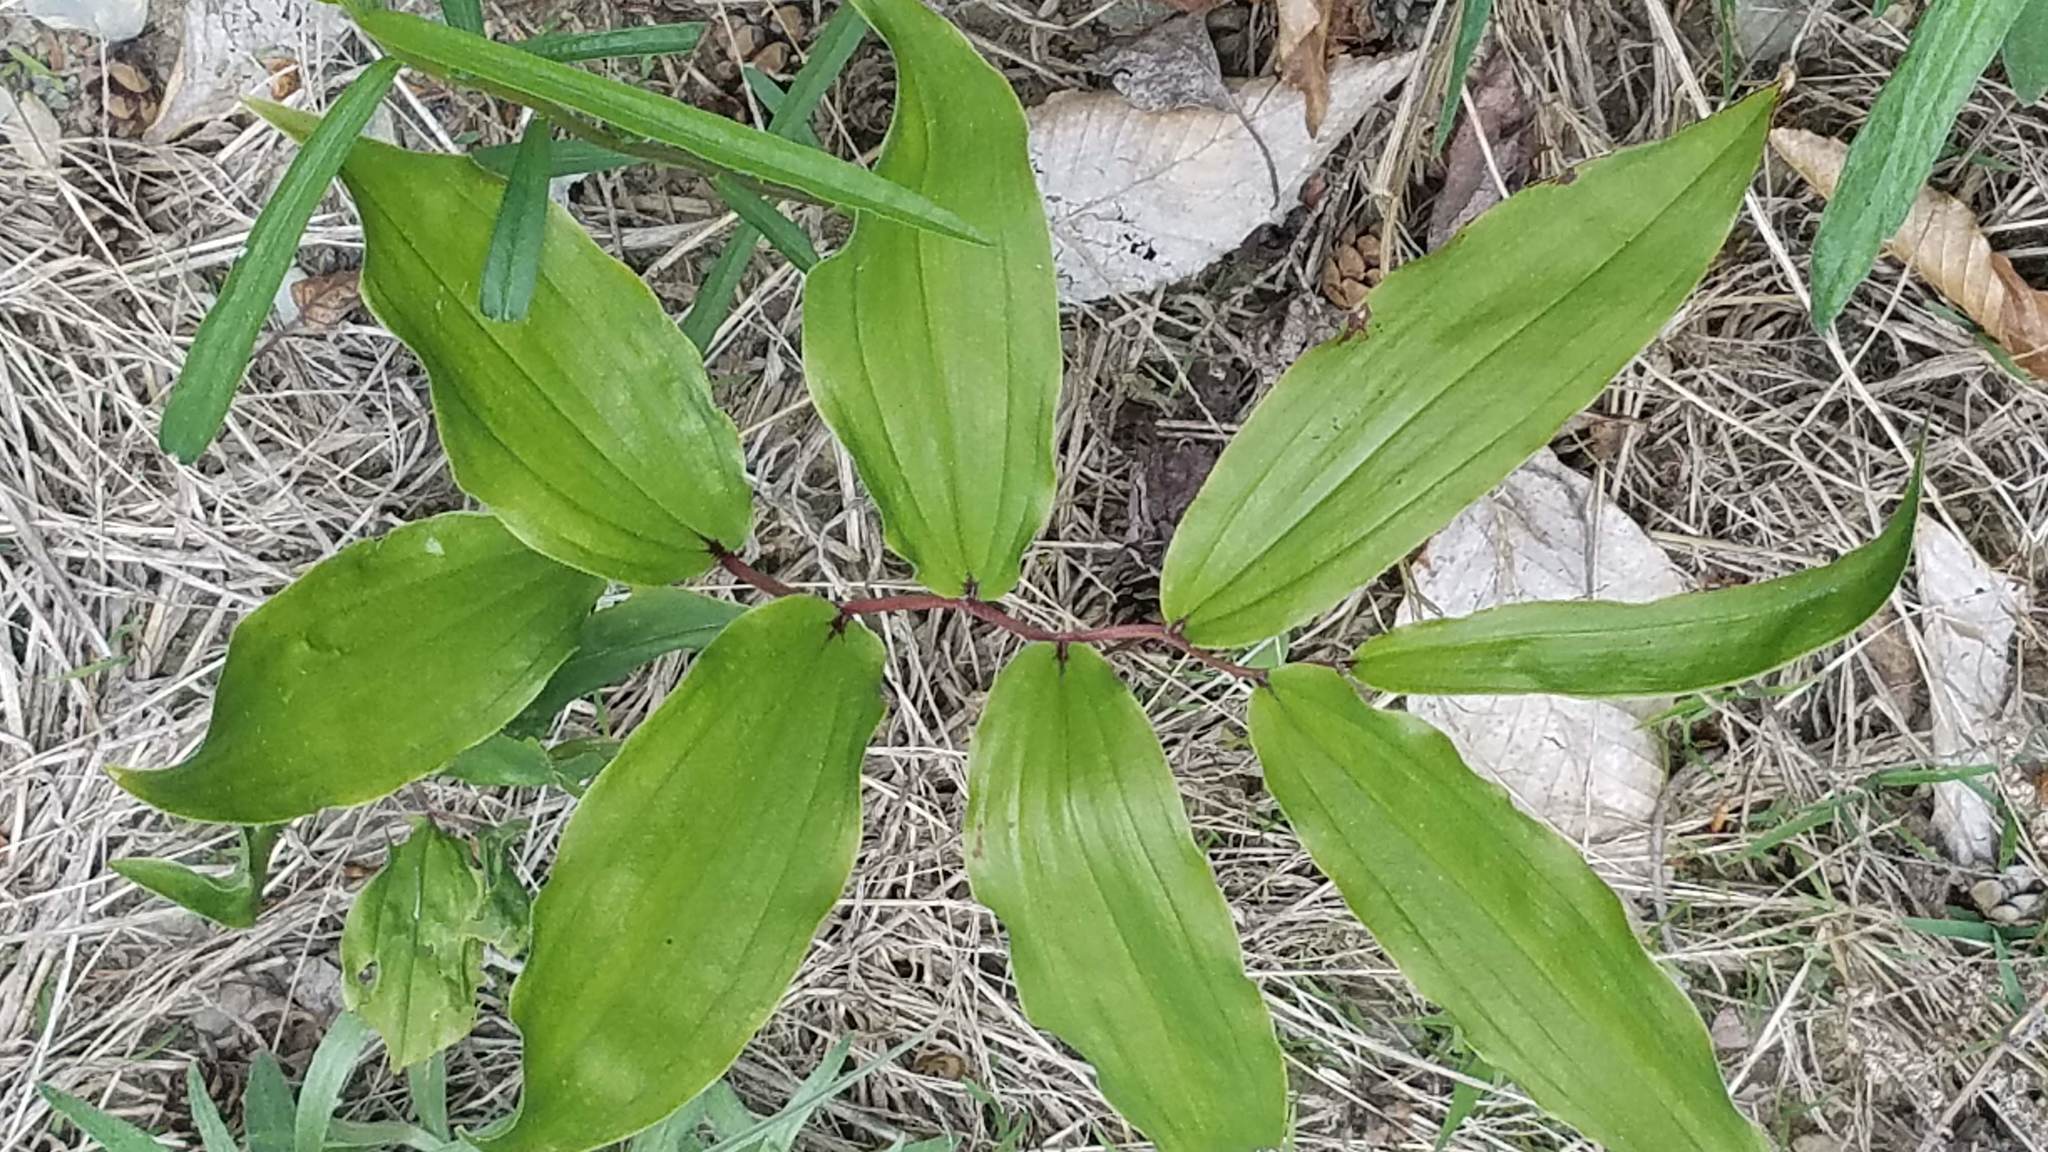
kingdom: Plantae
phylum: Tracheophyta
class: Liliopsida
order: Asparagales
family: Asparagaceae
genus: Maianthemum
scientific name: Maianthemum racemosum
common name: False spikenard
